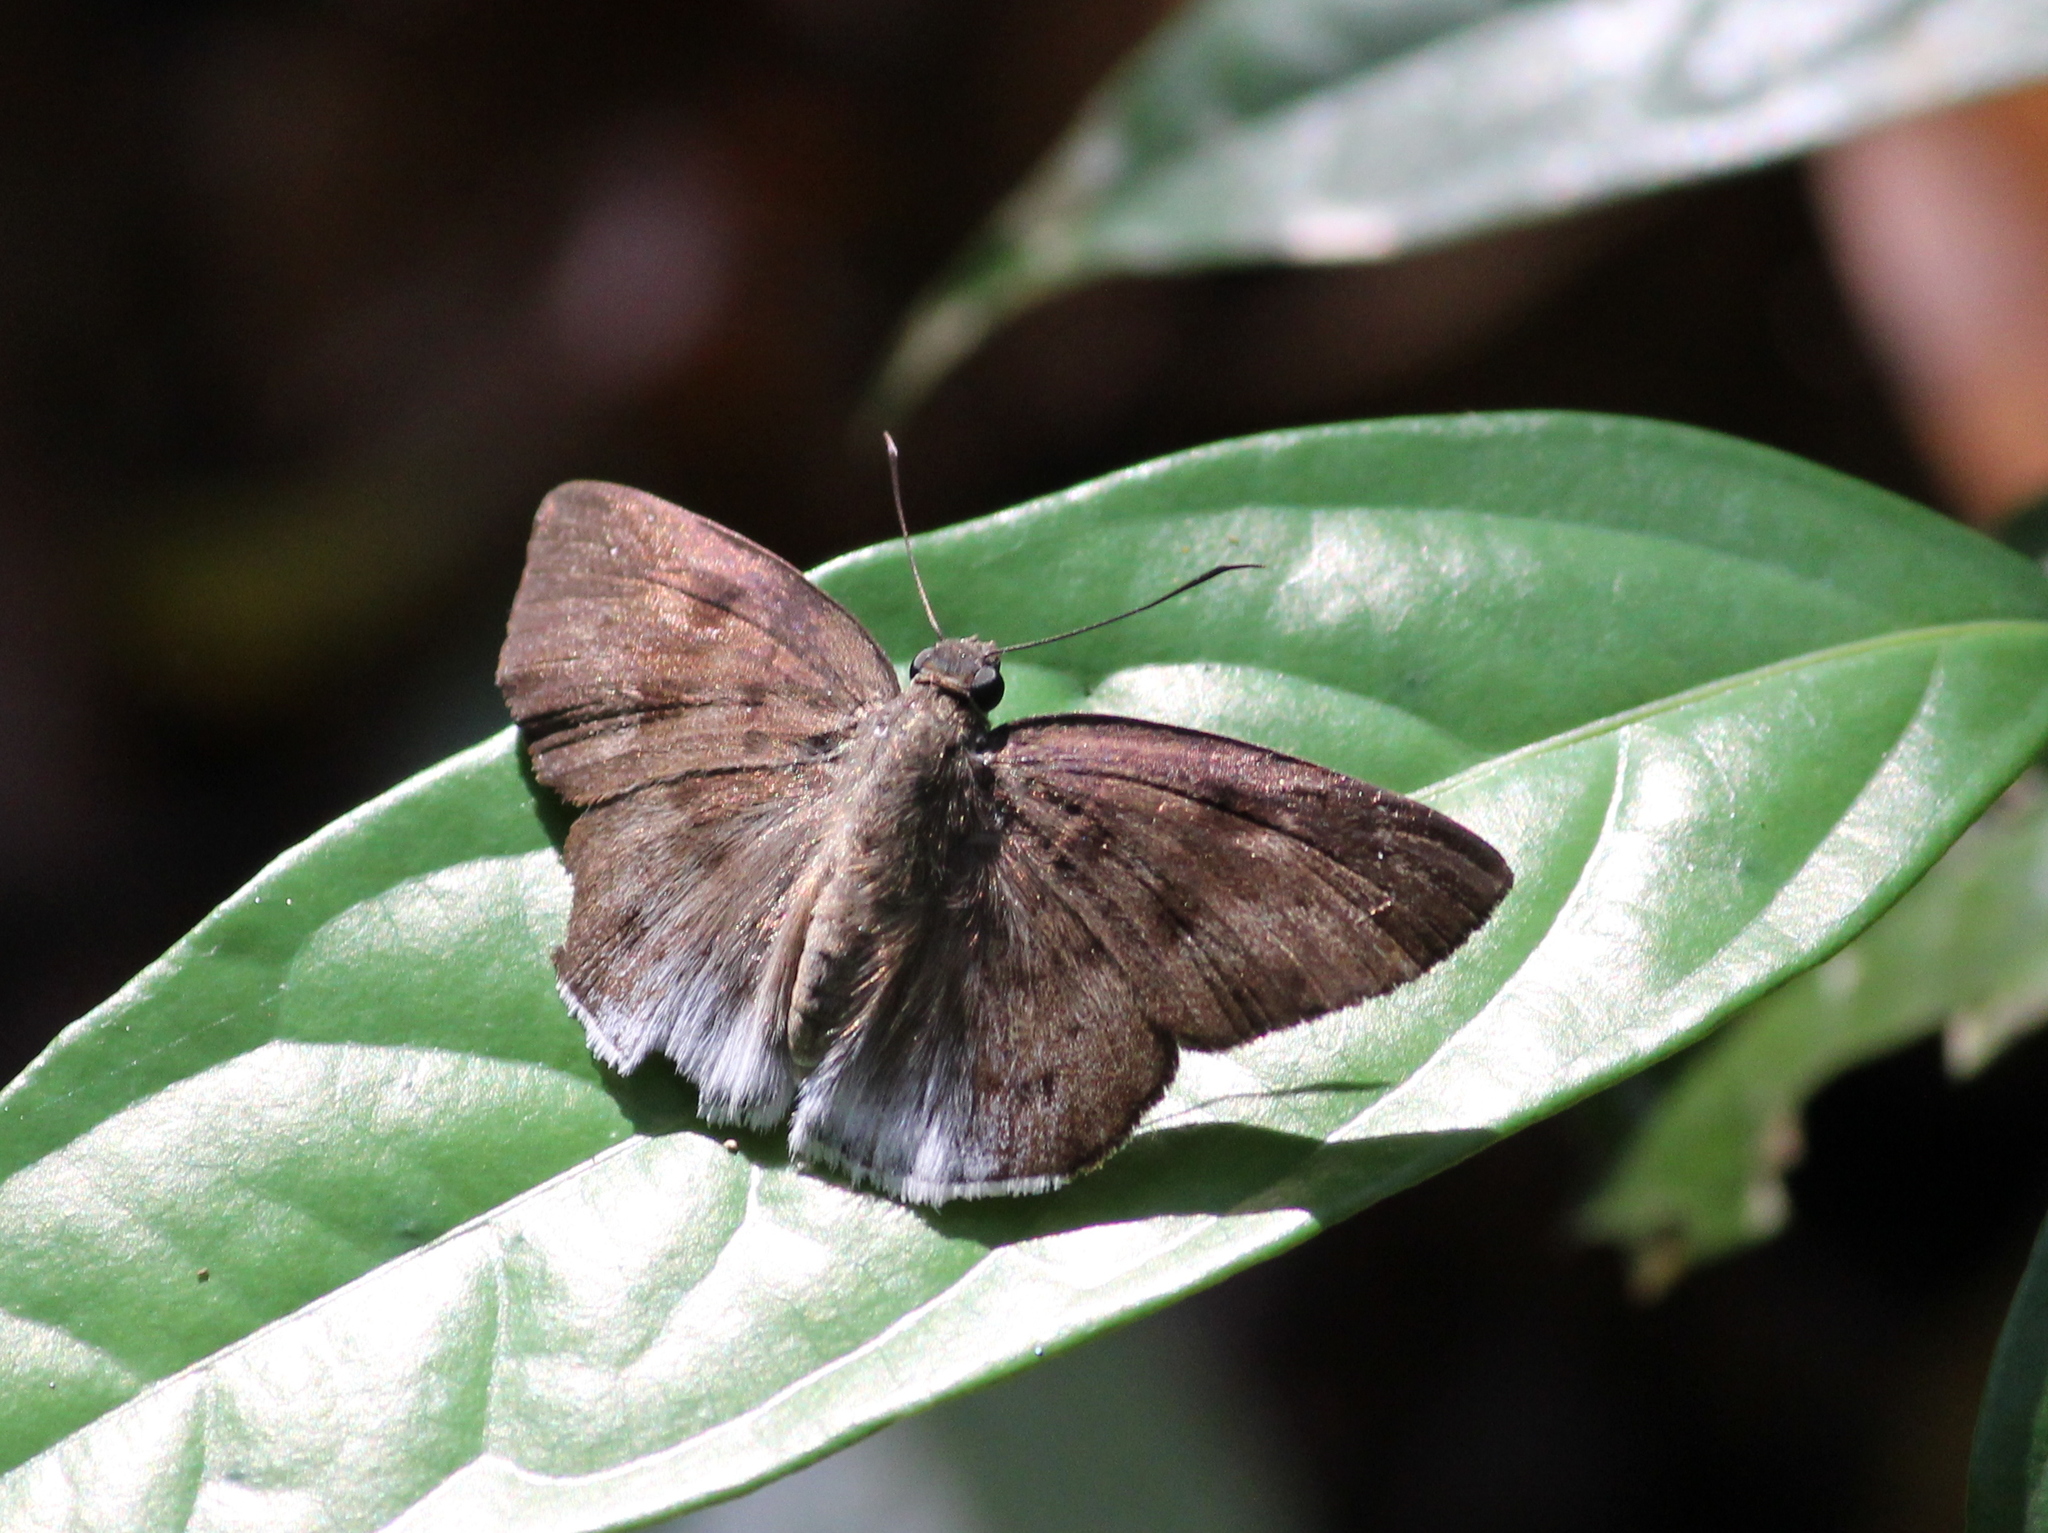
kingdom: Animalia
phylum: Arthropoda
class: Insecta
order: Lepidoptera
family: Hesperiidae
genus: Tagiades
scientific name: Tagiades gana
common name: Suffused snow flat
